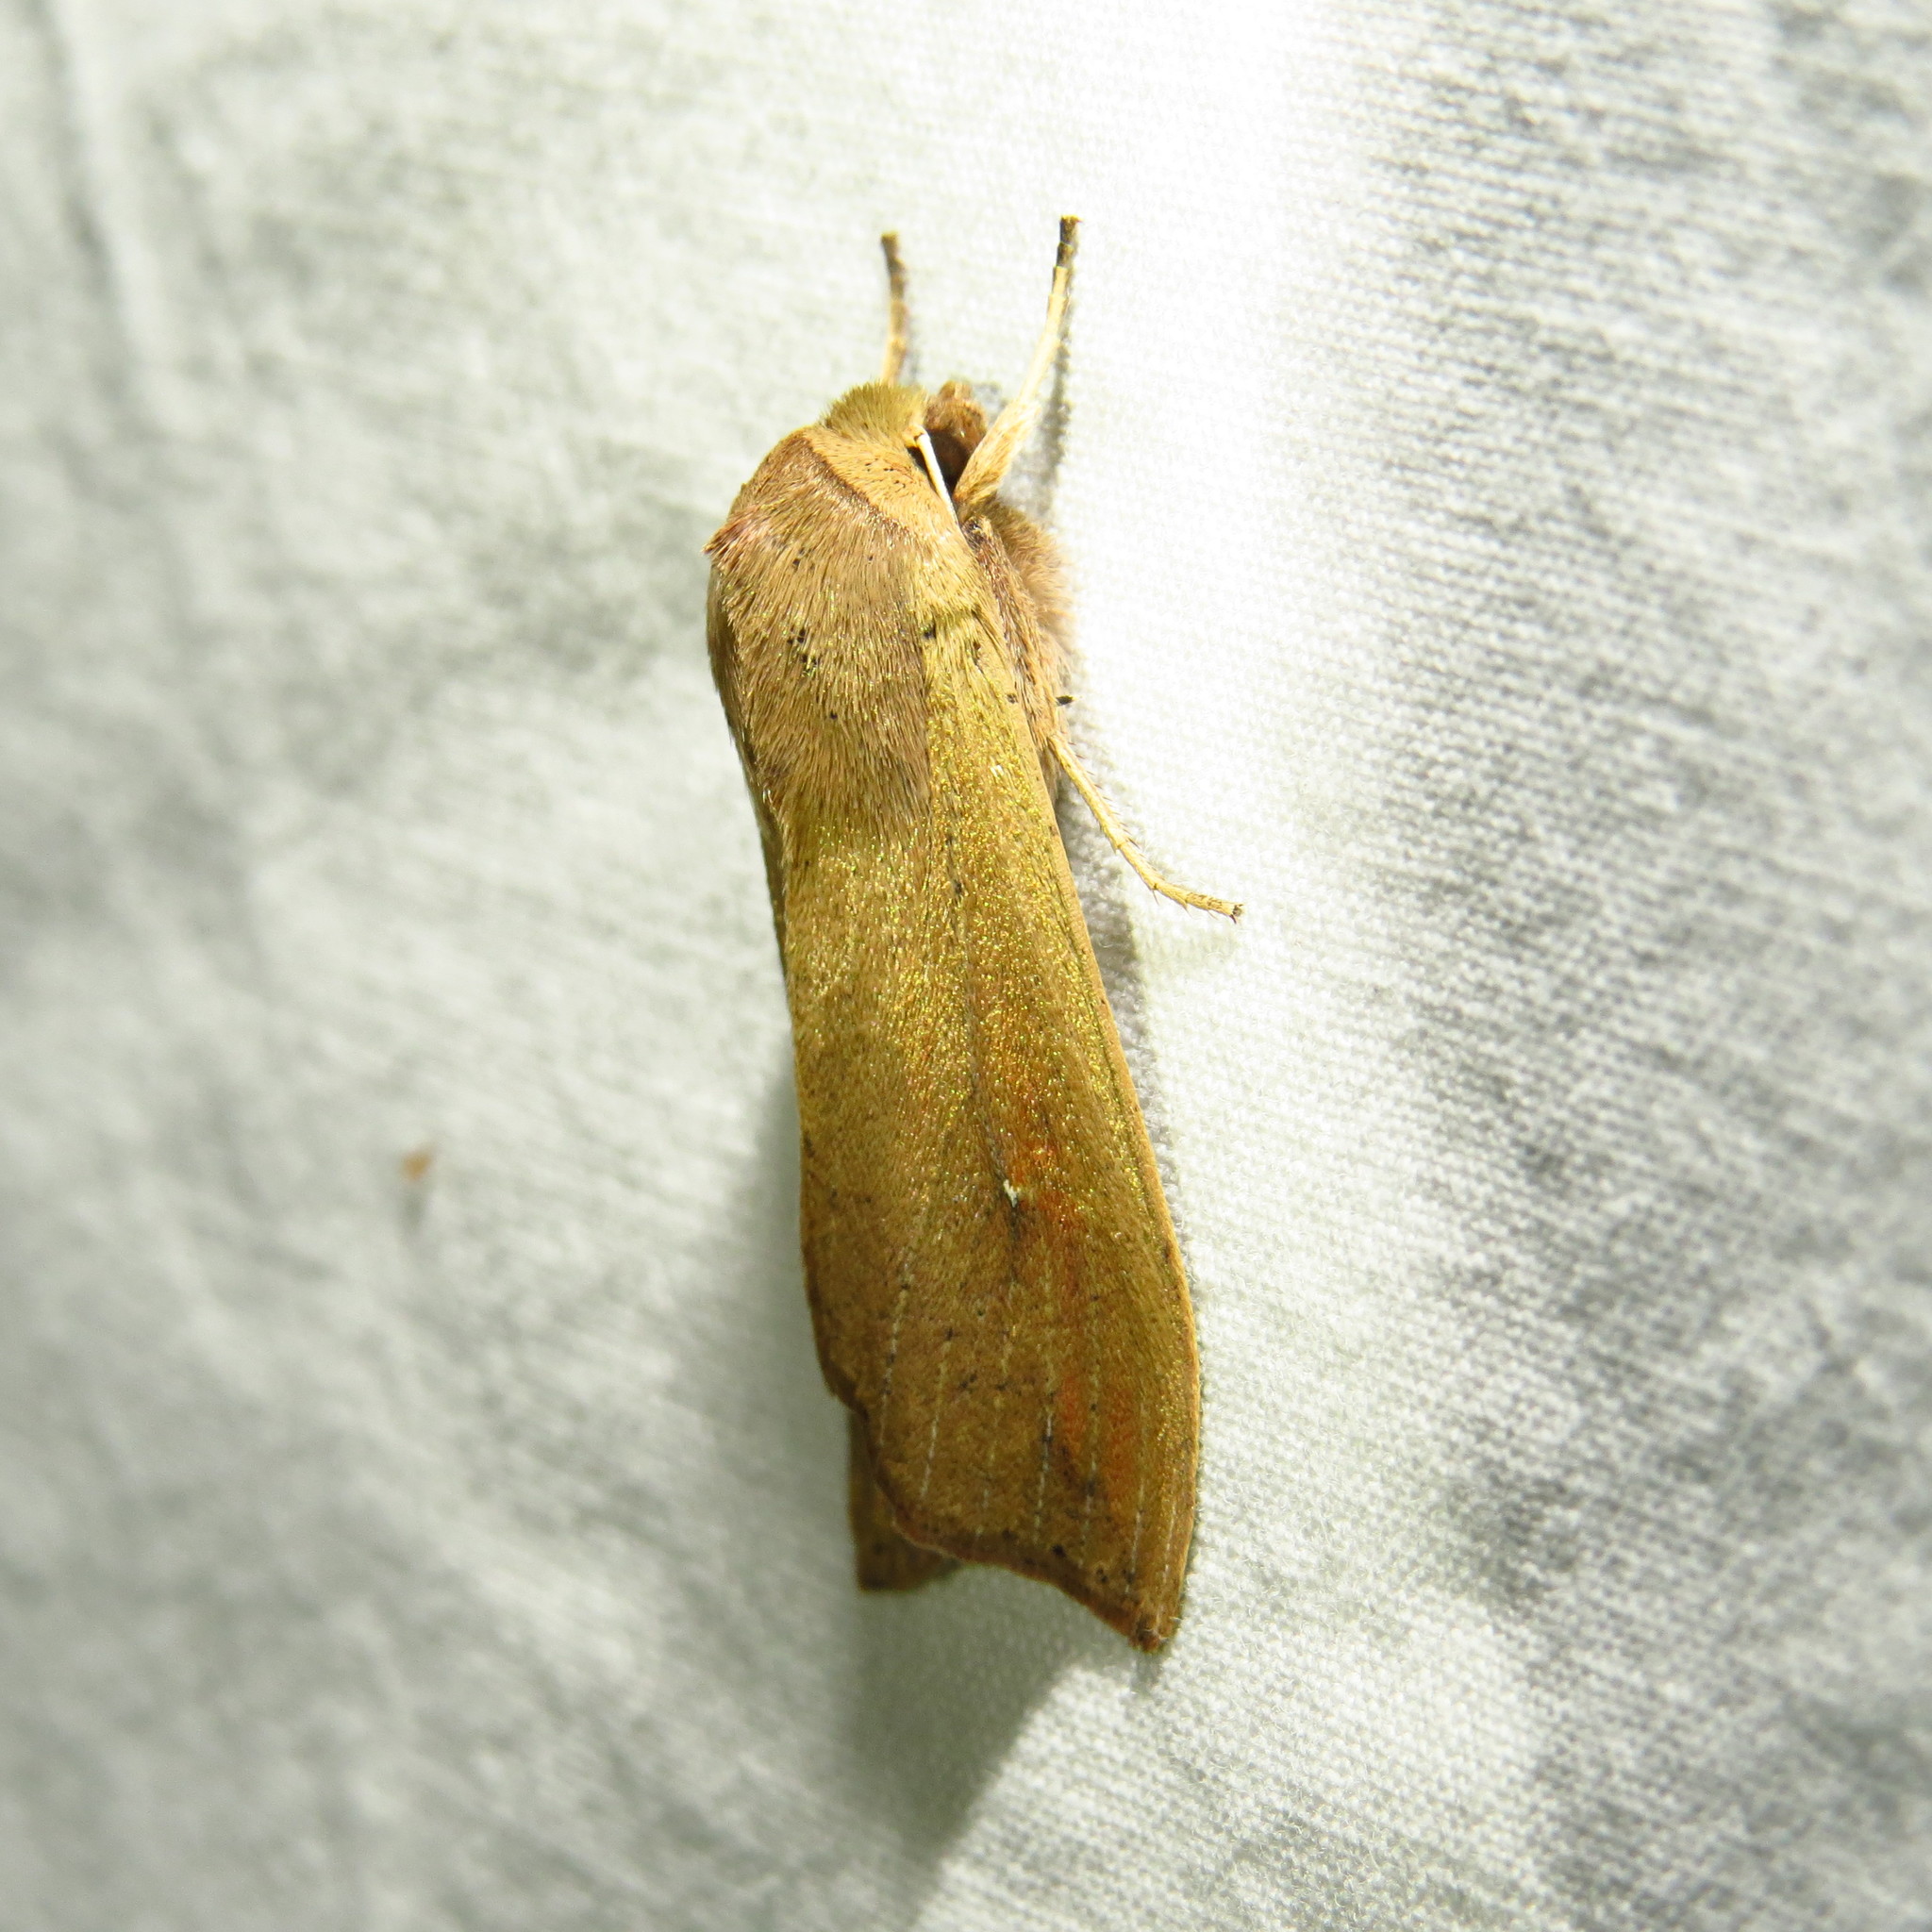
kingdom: Animalia
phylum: Arthropoda
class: Insecta
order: Lepidoptera
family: Noctuidae
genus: Mythimna
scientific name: Mythimna unipuncta
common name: White-speck
